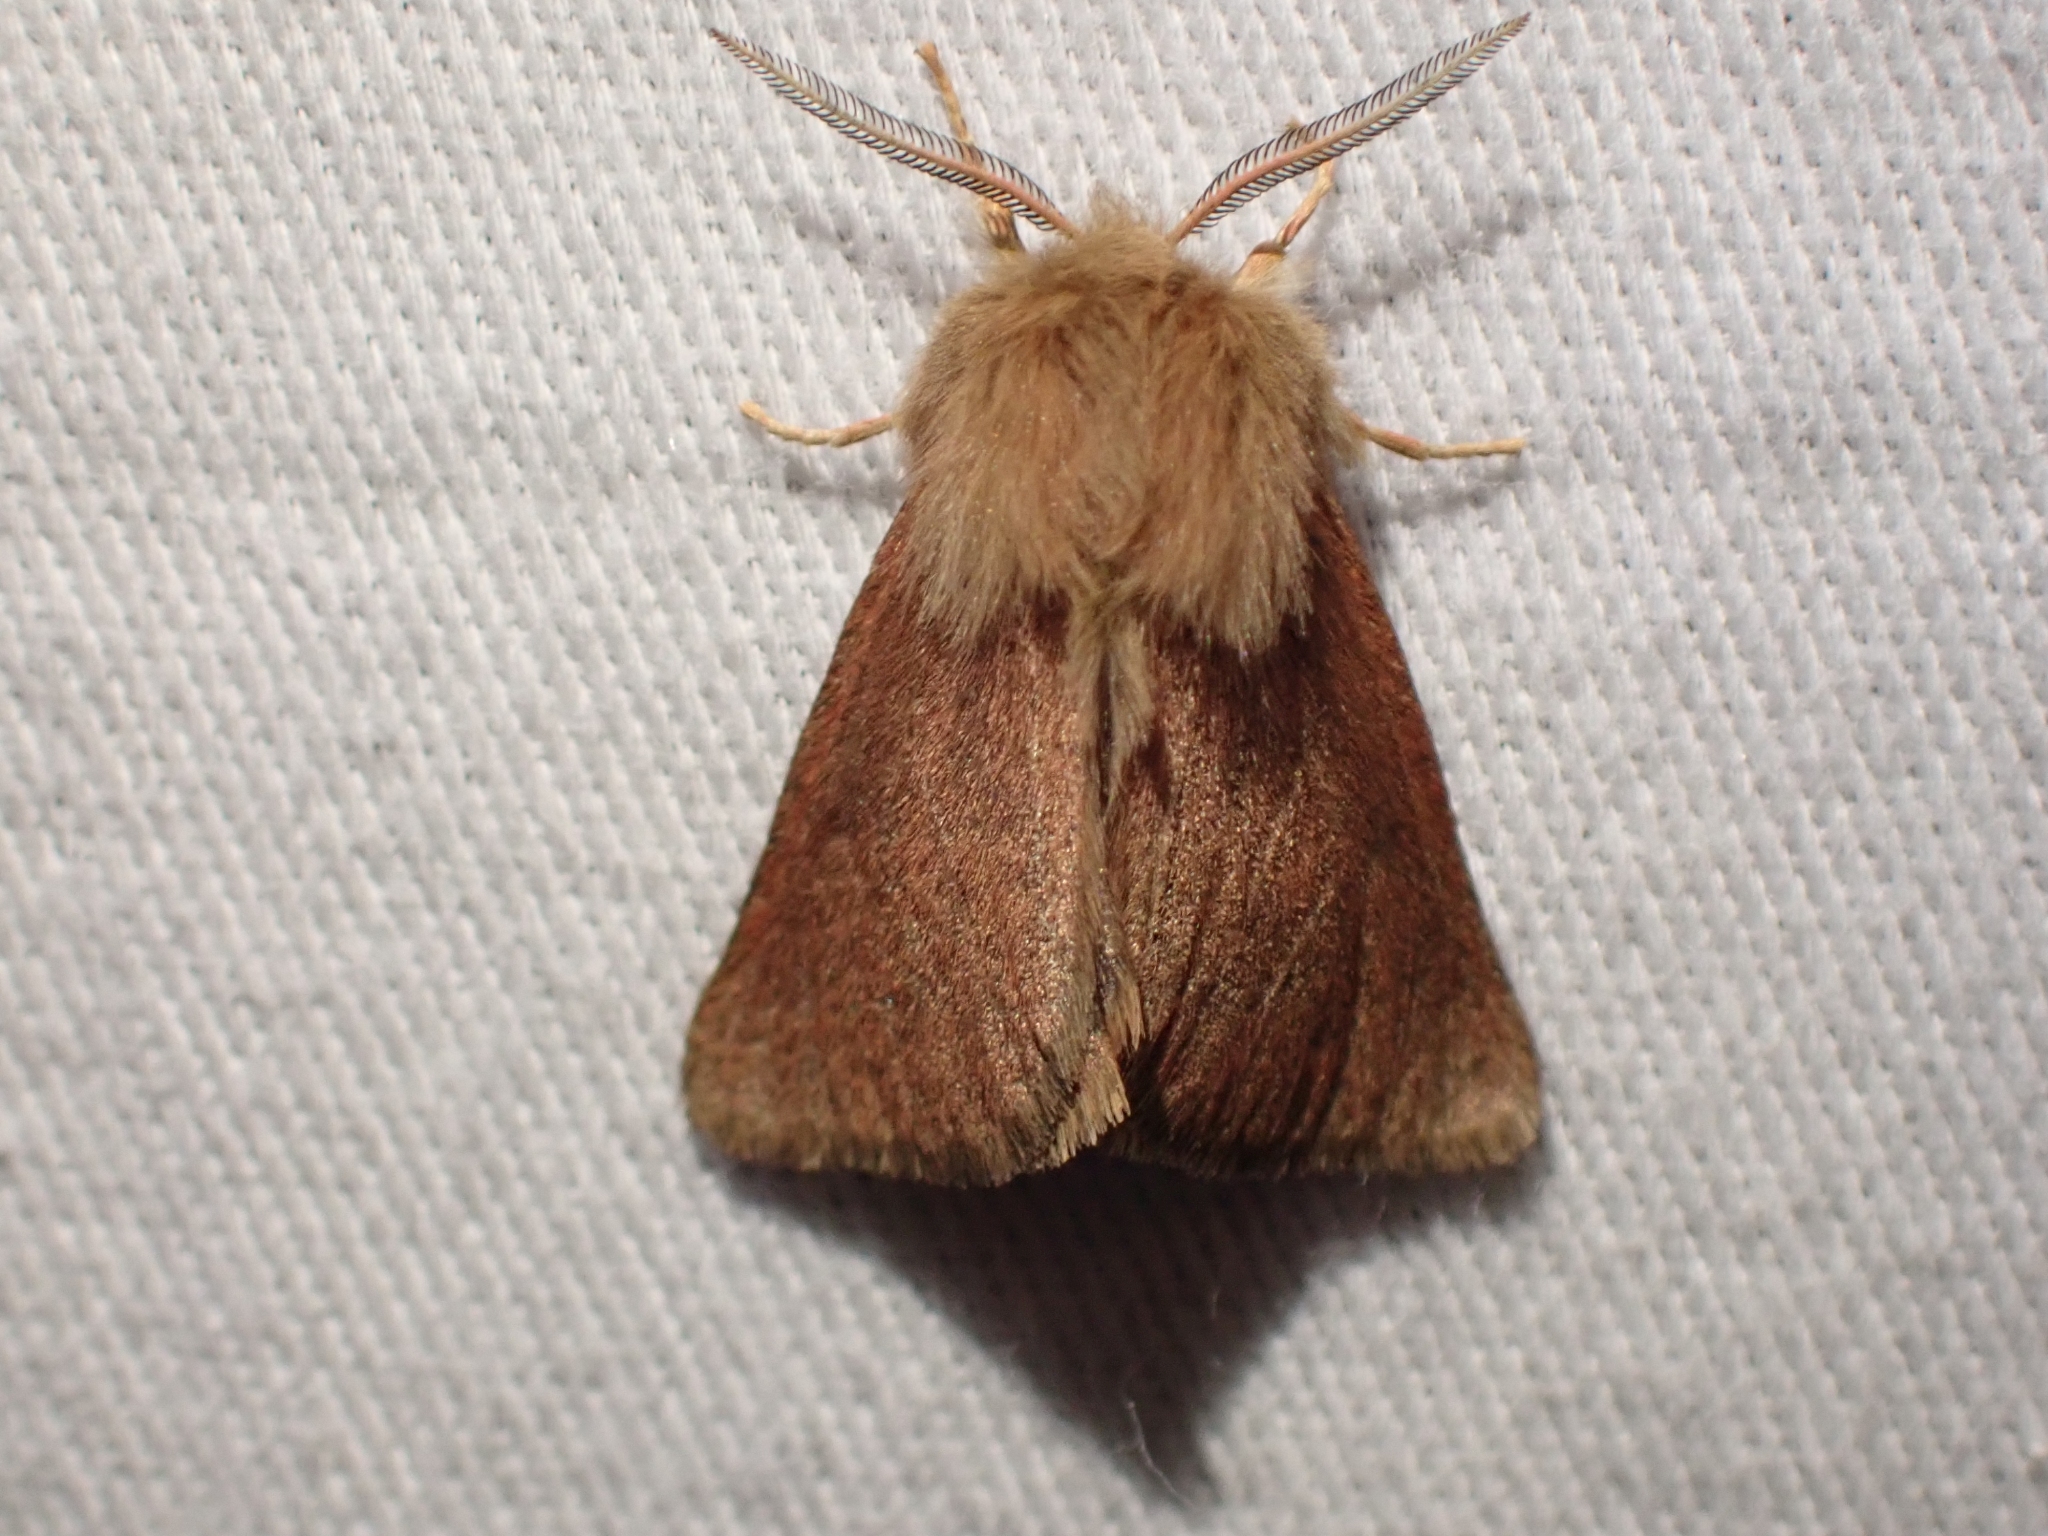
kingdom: Animalia
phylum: Arthropoda
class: Insecta
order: Lepidoptera
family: Erebidae
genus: Spilosoma
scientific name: Spilosoma vagans
